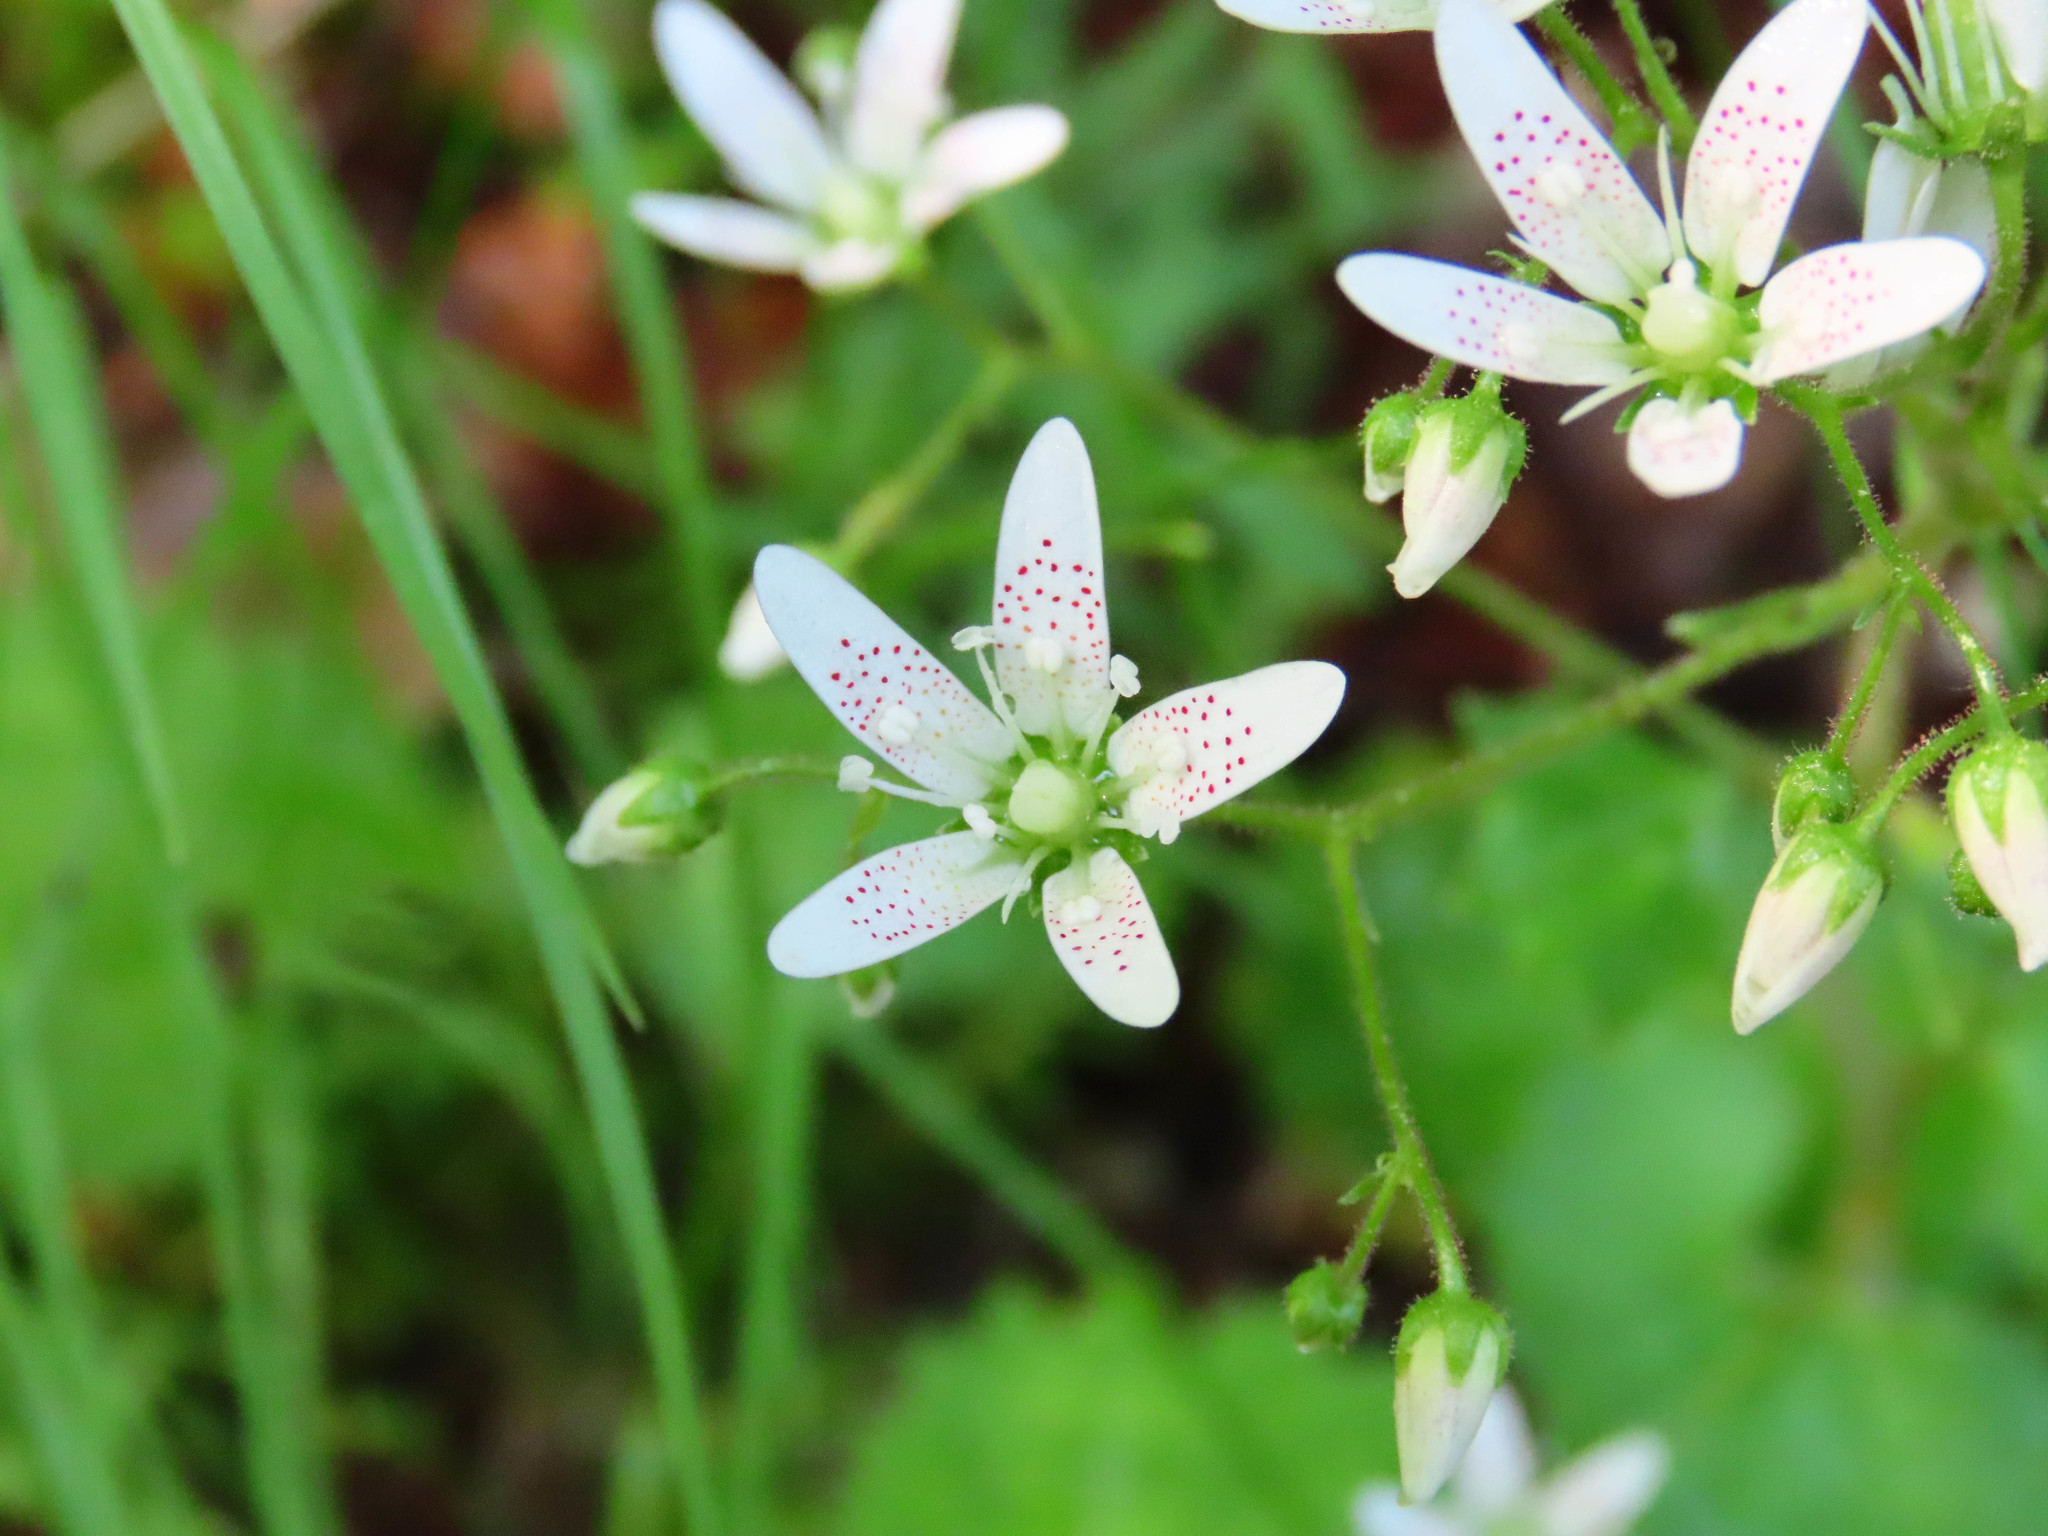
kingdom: Plantae
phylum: Tracheophyta
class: Magnoliopsida
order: Saxifragales
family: Saxifragaceae
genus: Saxifraga
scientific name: Saxifraga rotundifolia
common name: Round-leaved saxifrage
